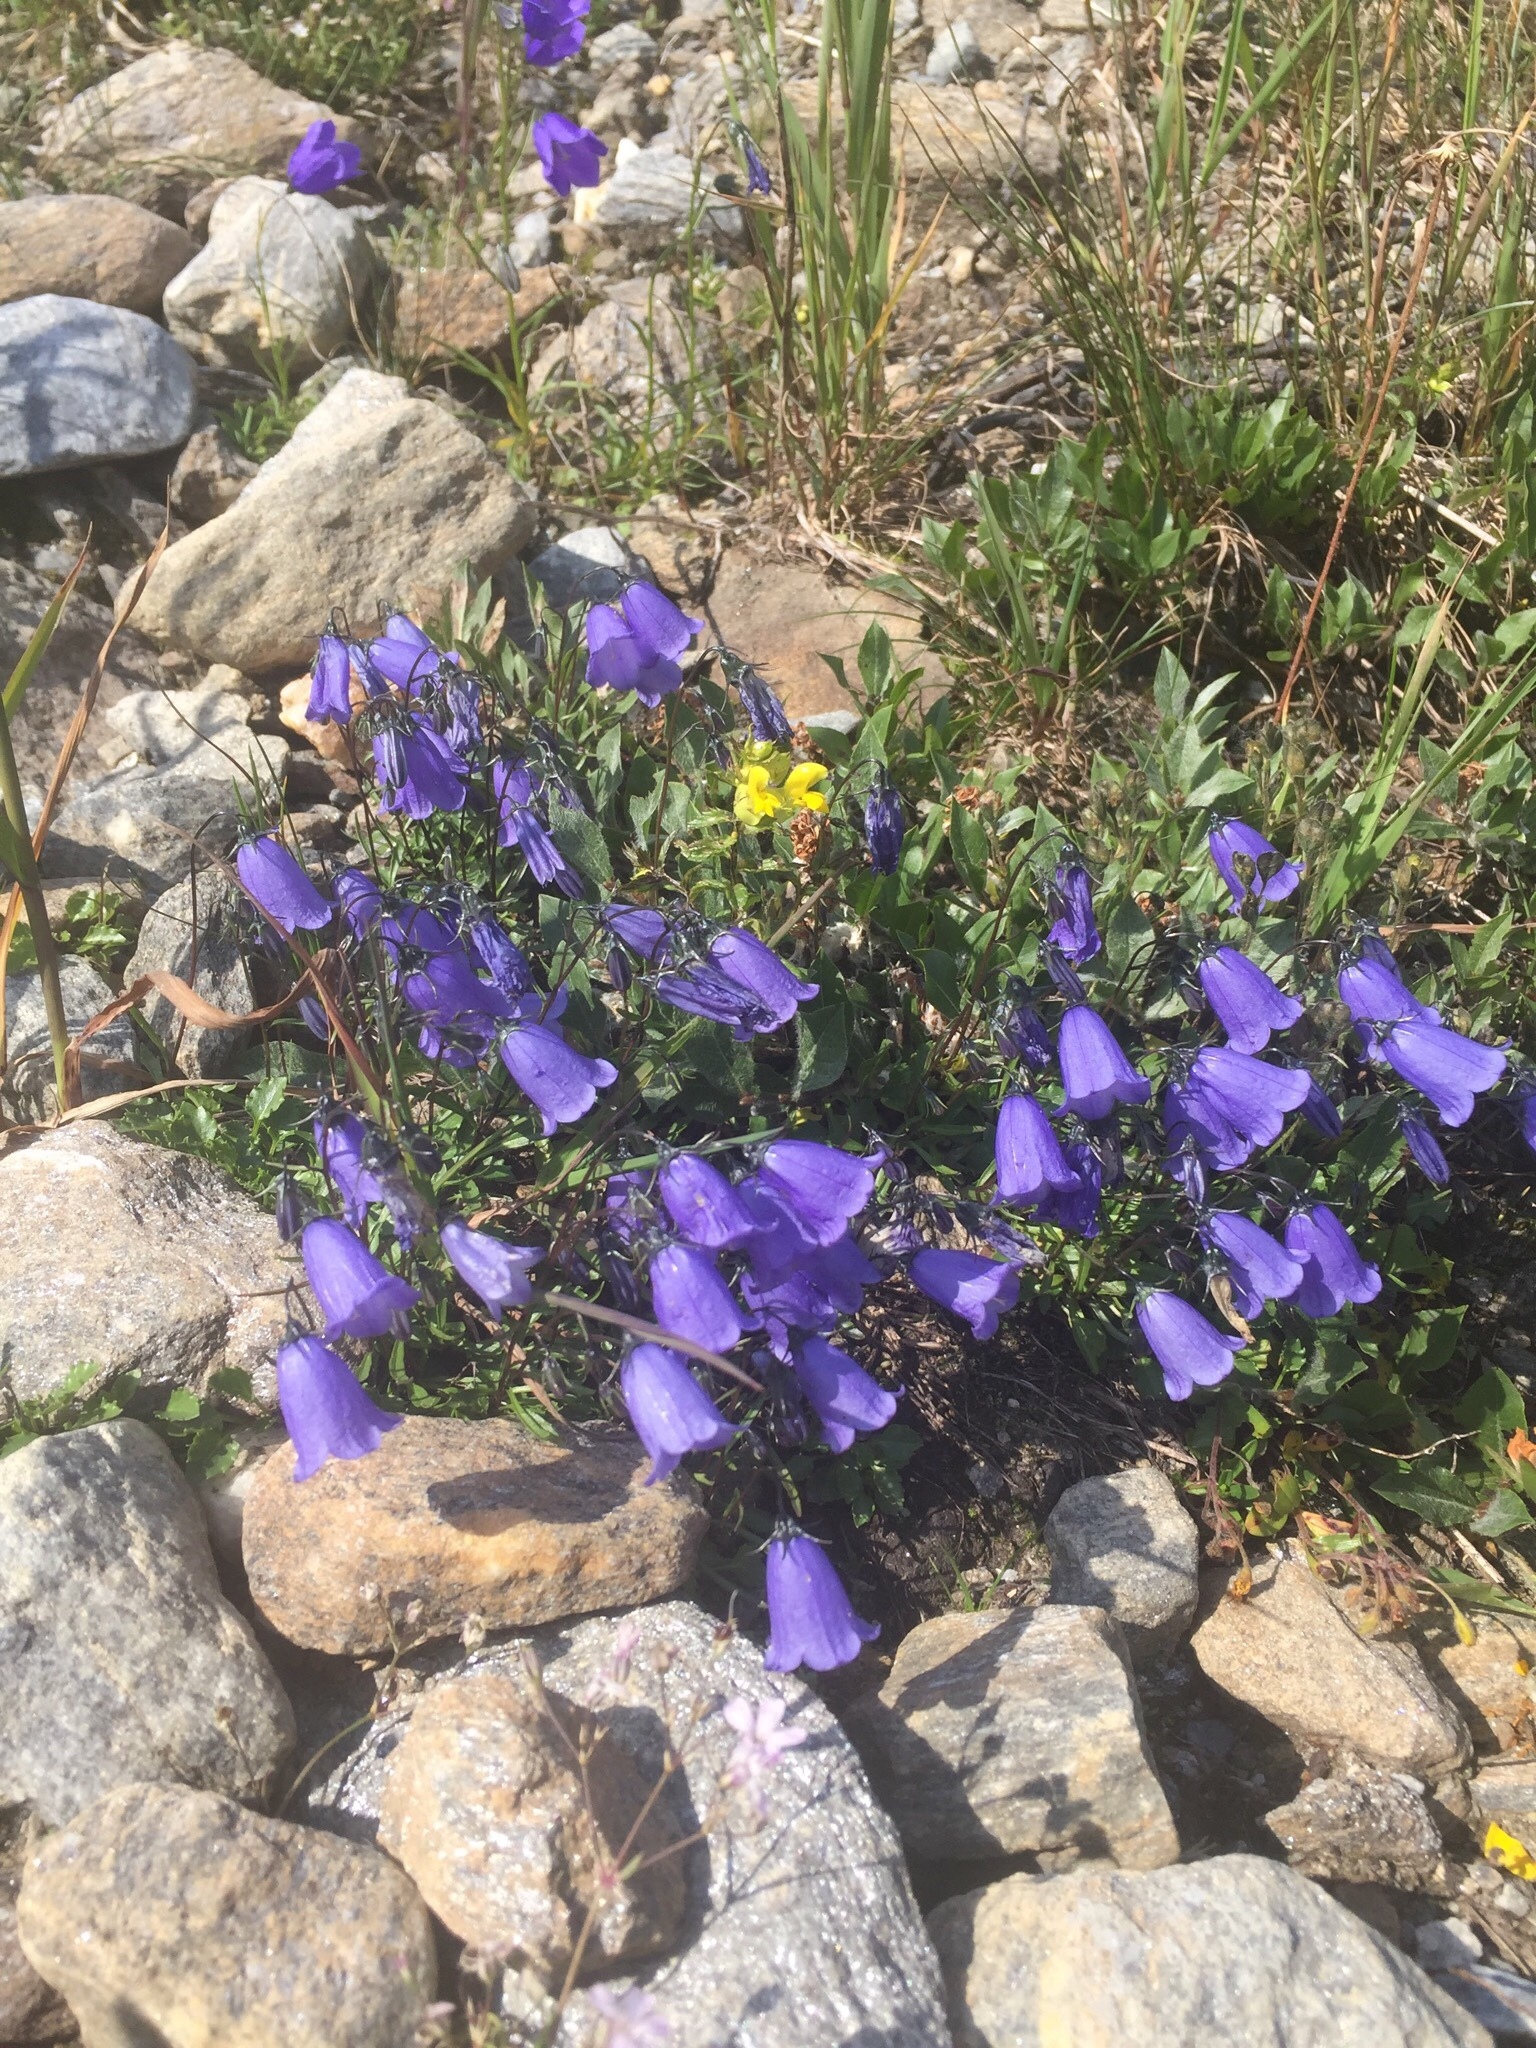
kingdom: Plantae
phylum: Tracheophyta
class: Magnoliopsida
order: Asterales
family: Campanulaceae
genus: Campanula
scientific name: Campanula scheuchzeri
